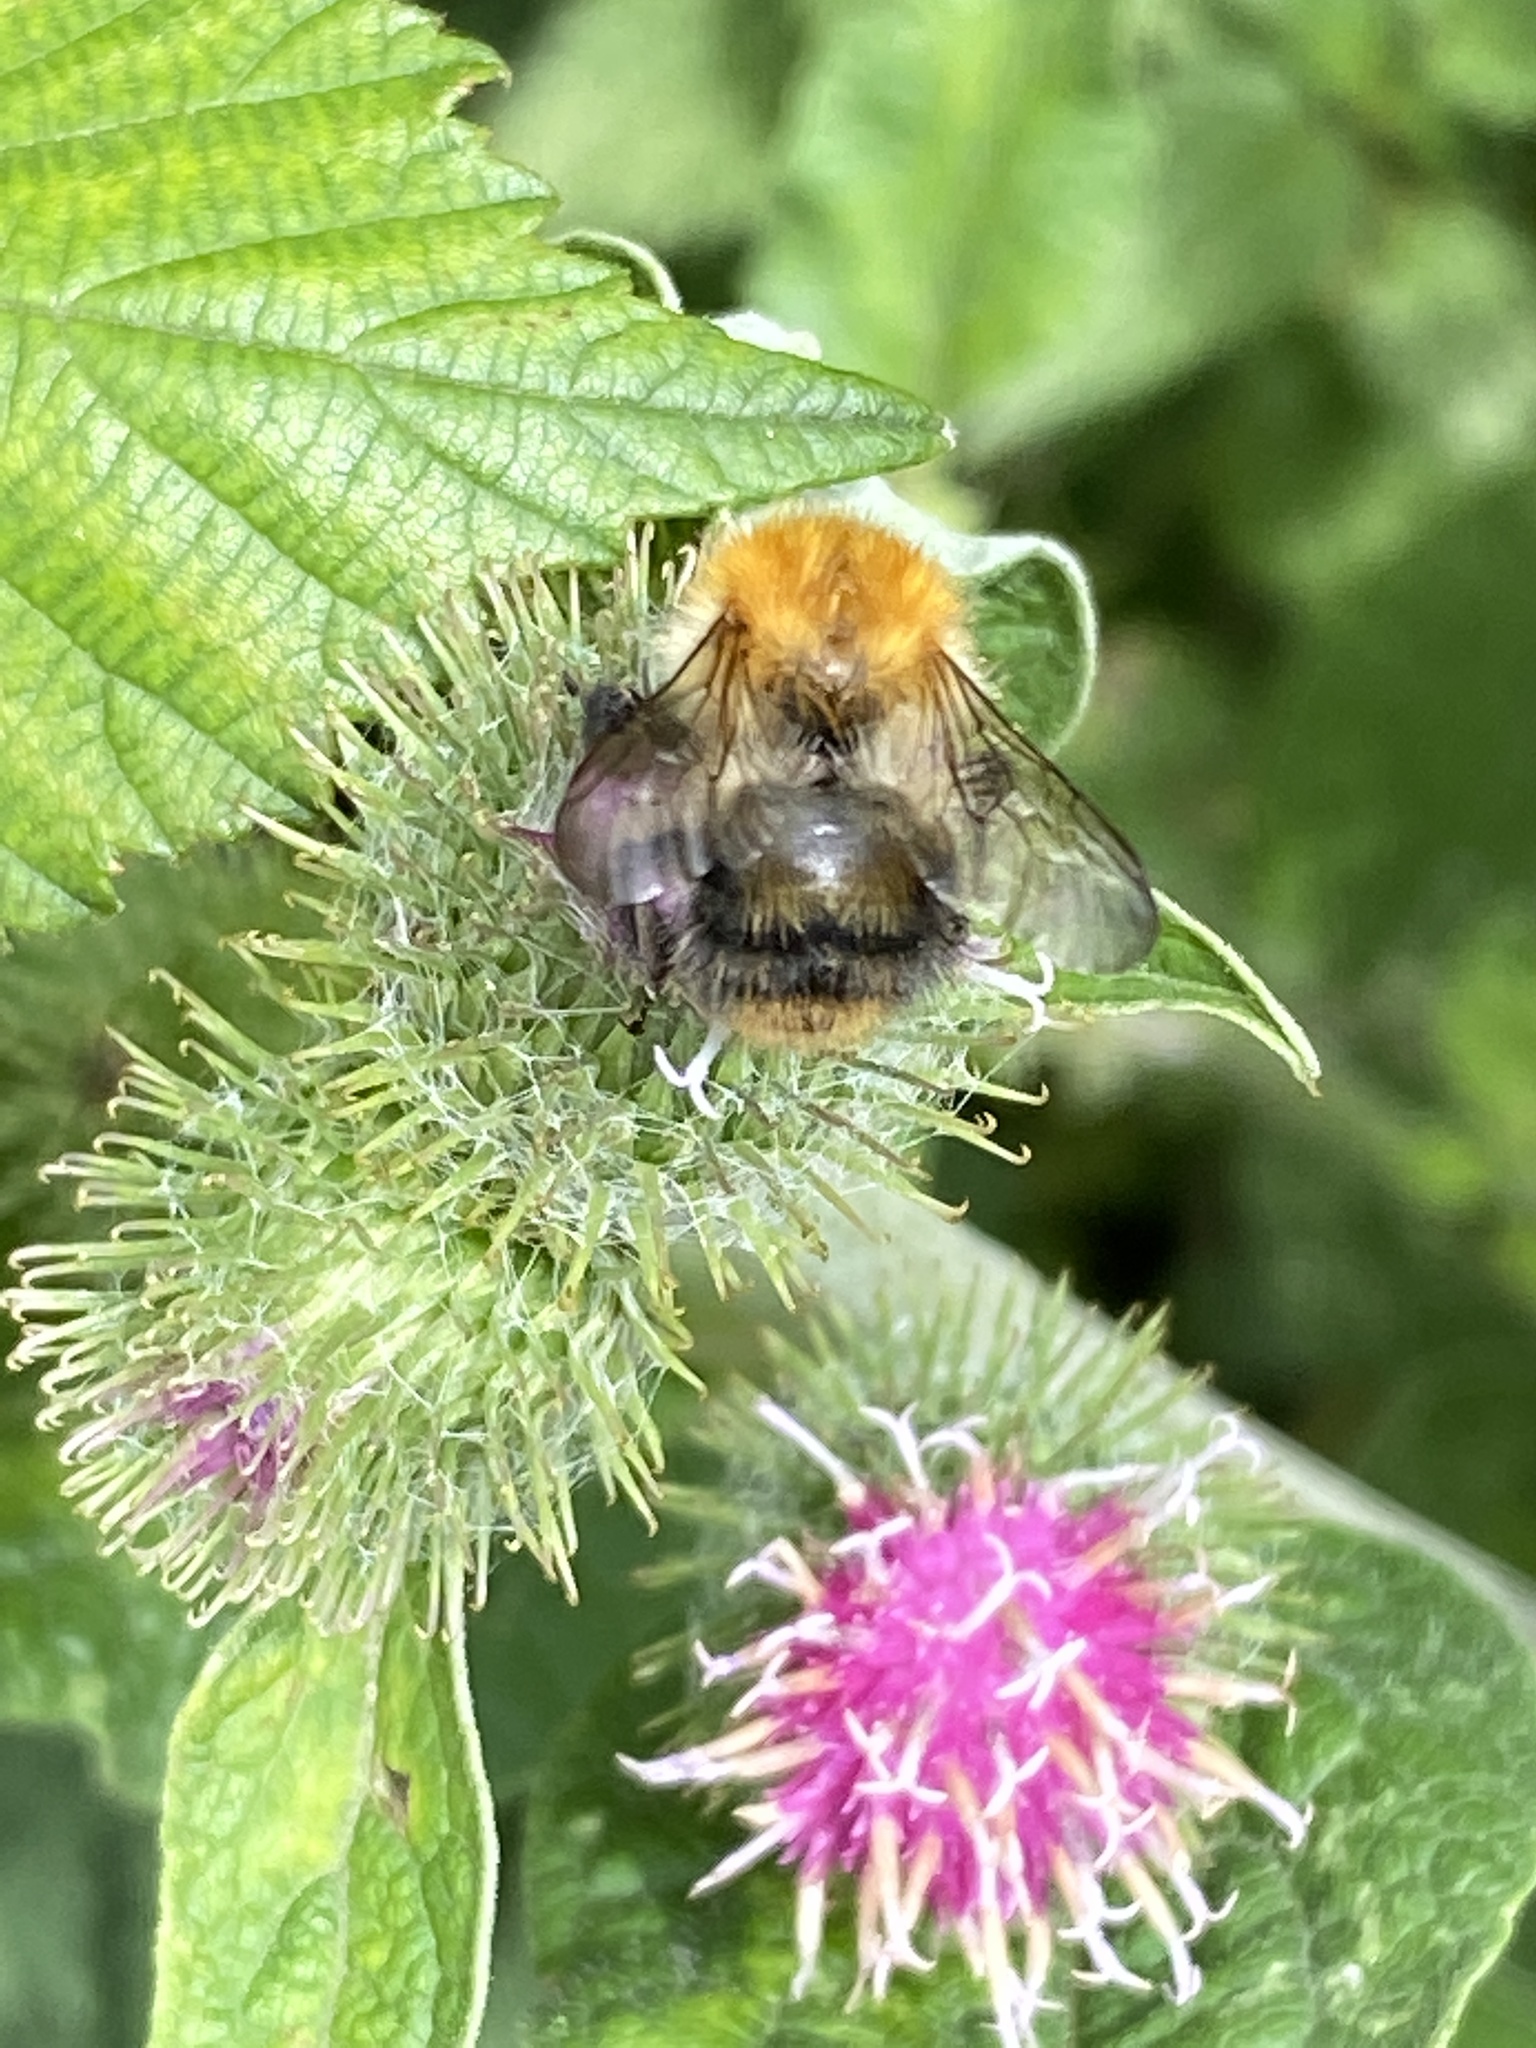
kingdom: Animalia
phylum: Arthropoda
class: Insecta
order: Hymenoptera
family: Apidae
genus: Bombus
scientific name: Bombus pascuorum
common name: Common carder bee
